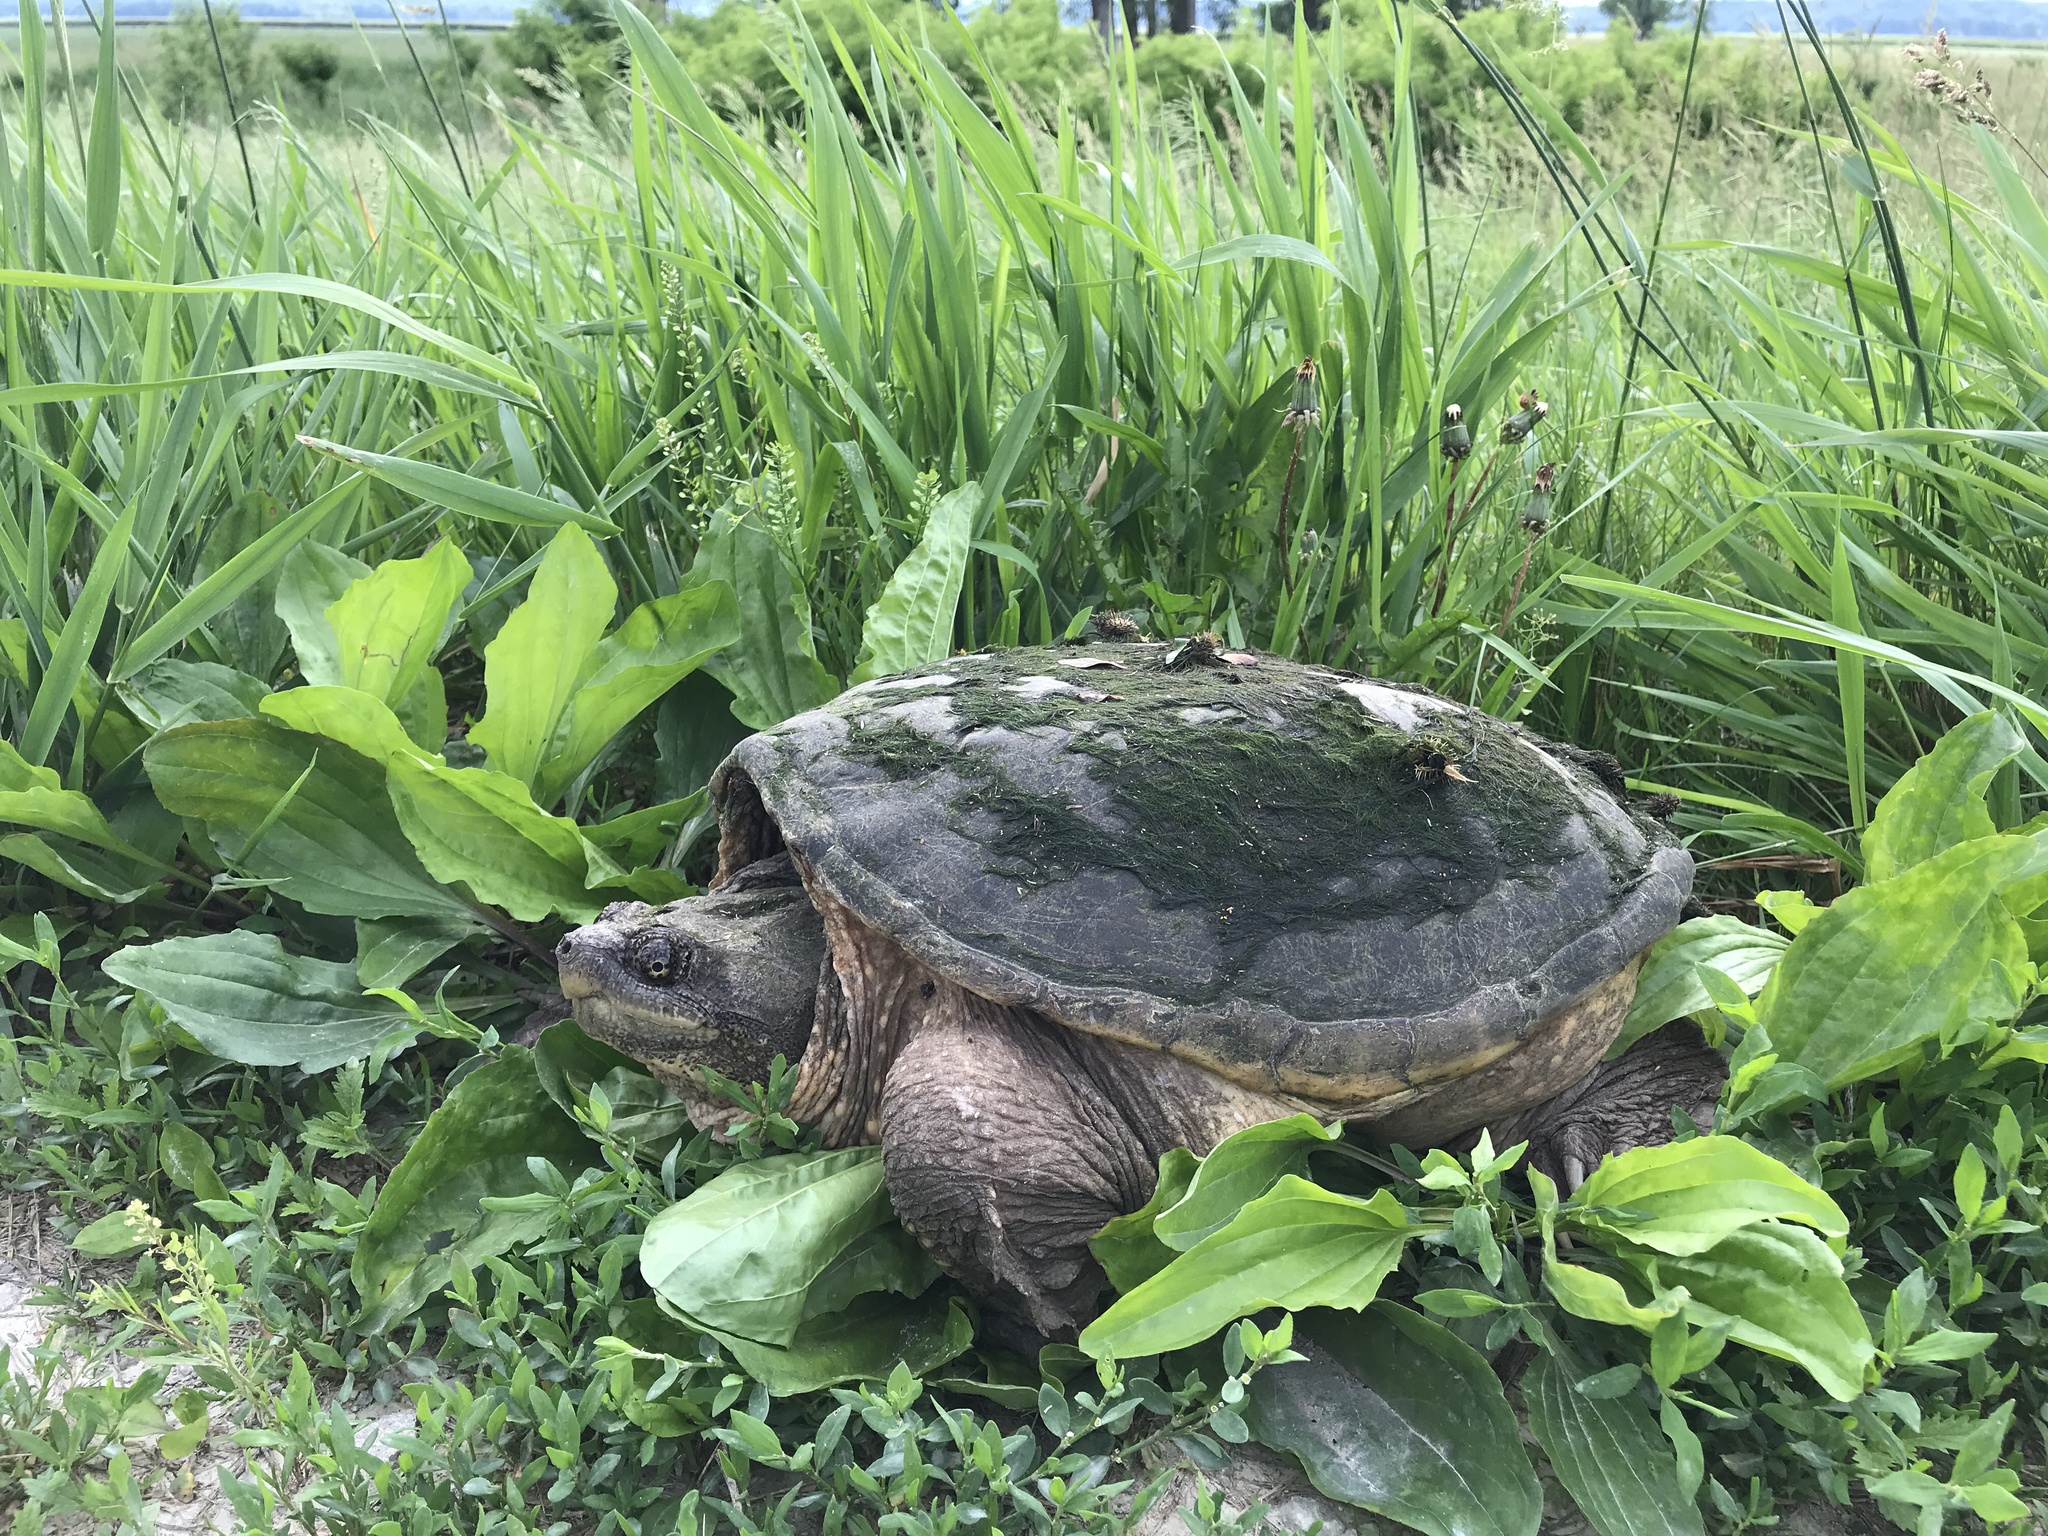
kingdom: Animalia
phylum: Chordata
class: Testudines
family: Chelydridae
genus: Chelydra
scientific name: Chelydra serpentina
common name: Common snapping turtle
